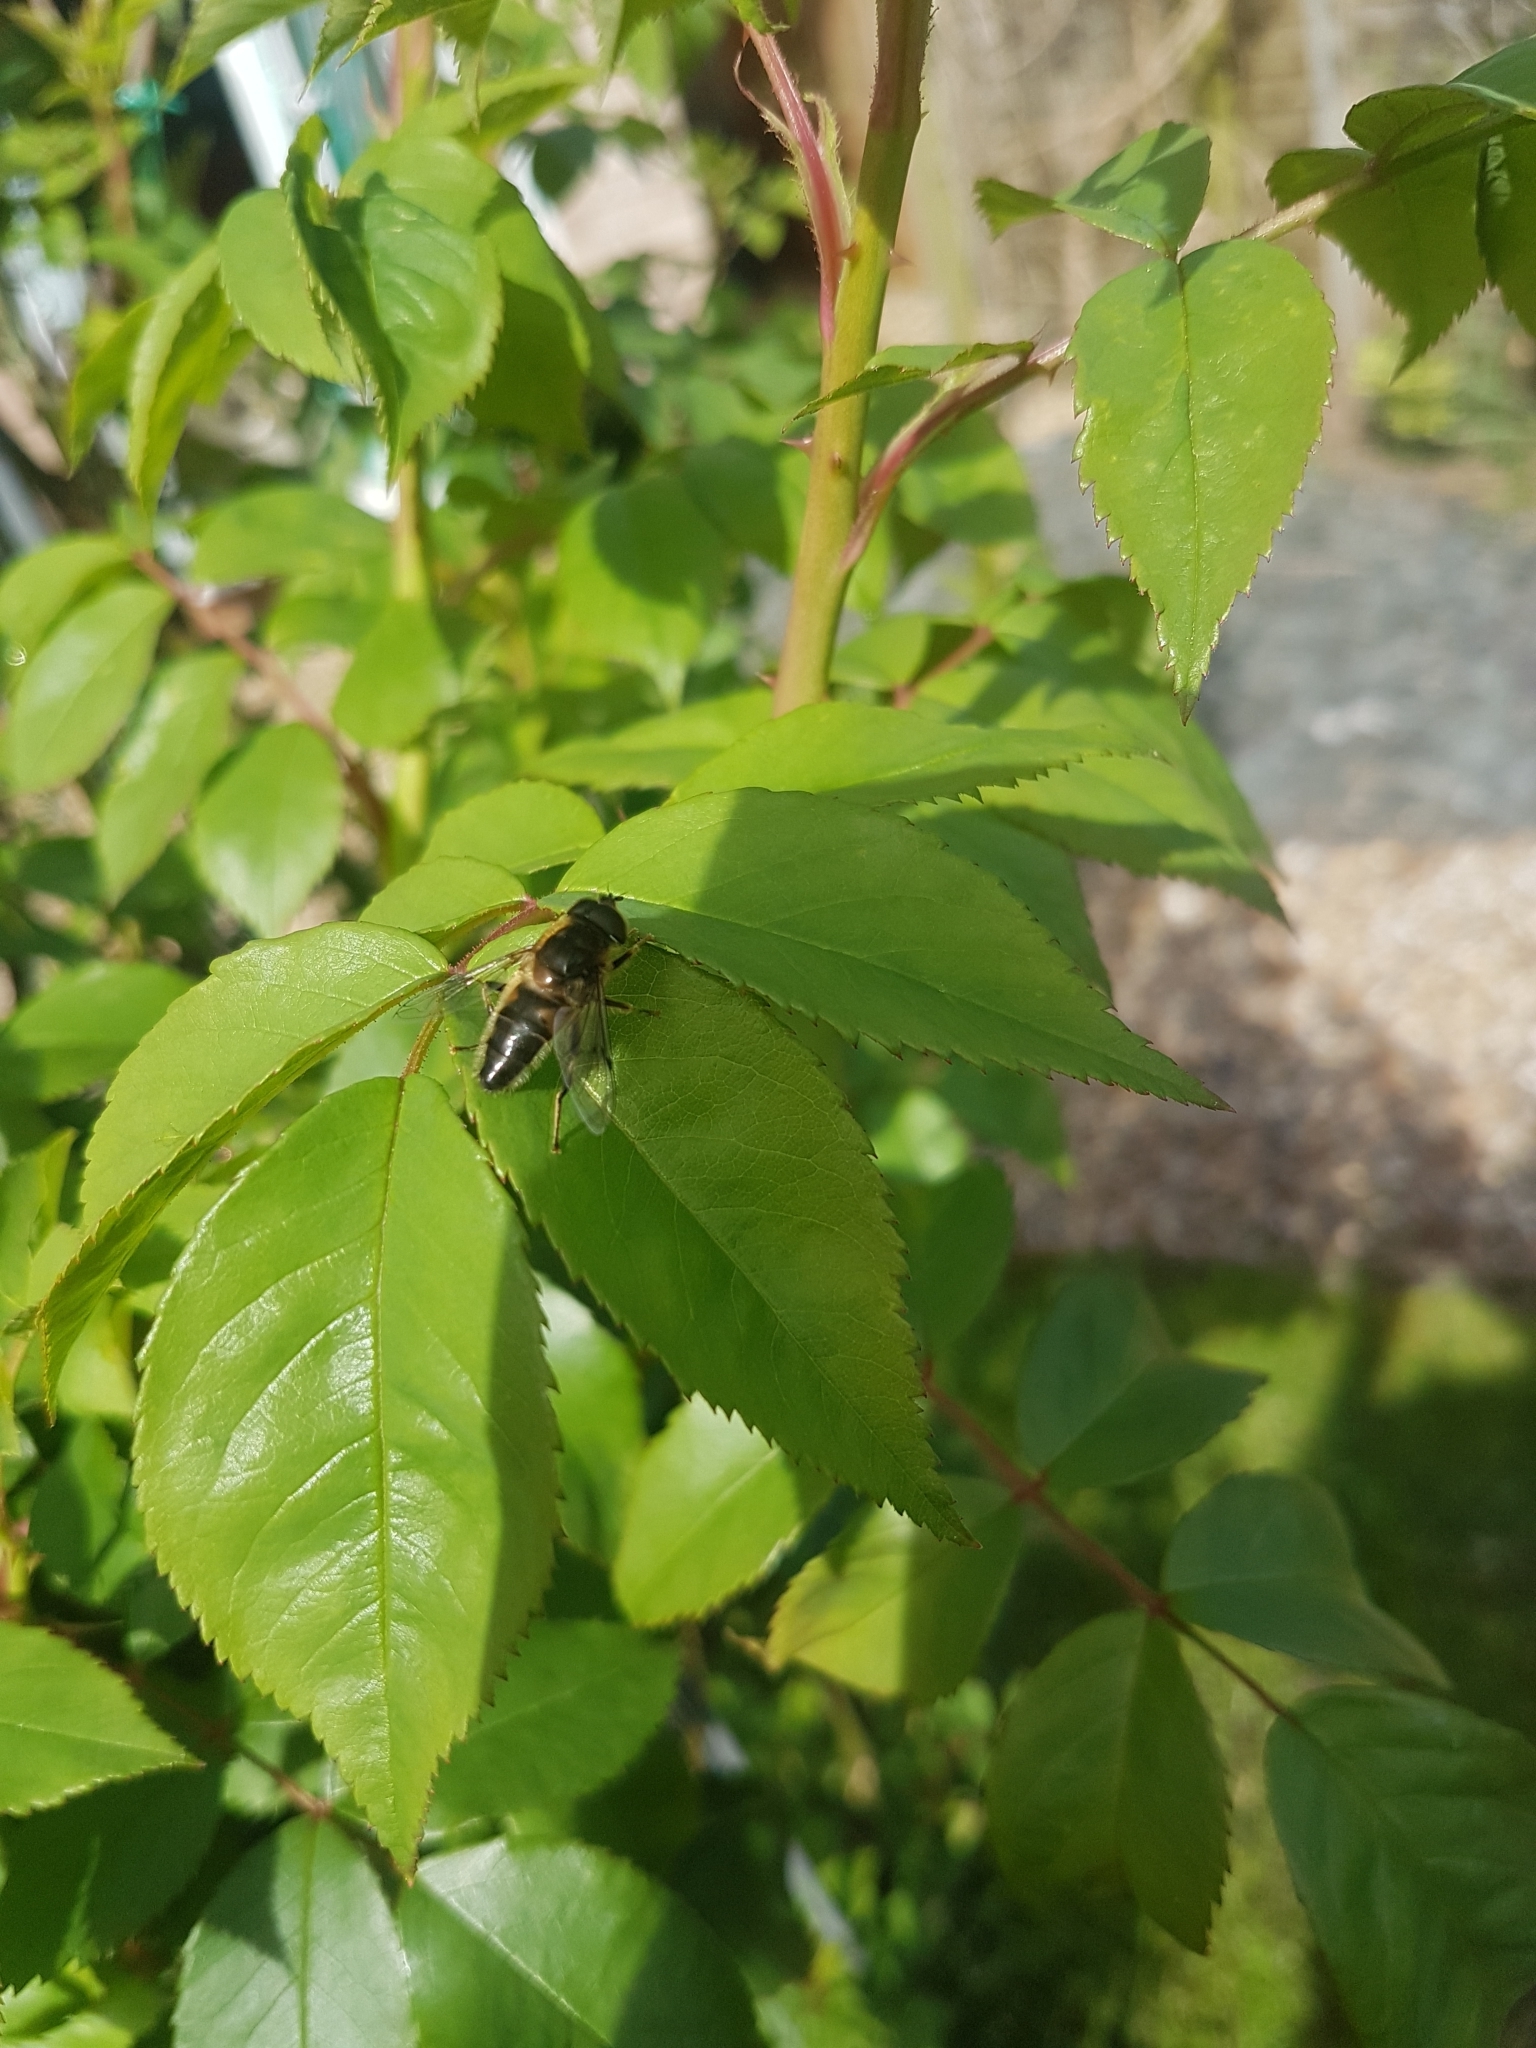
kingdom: Animalia
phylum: Arthropoda
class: Insecta
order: Diptera
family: Syrphidae
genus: Eristalis
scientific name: Eristalis pertinax
